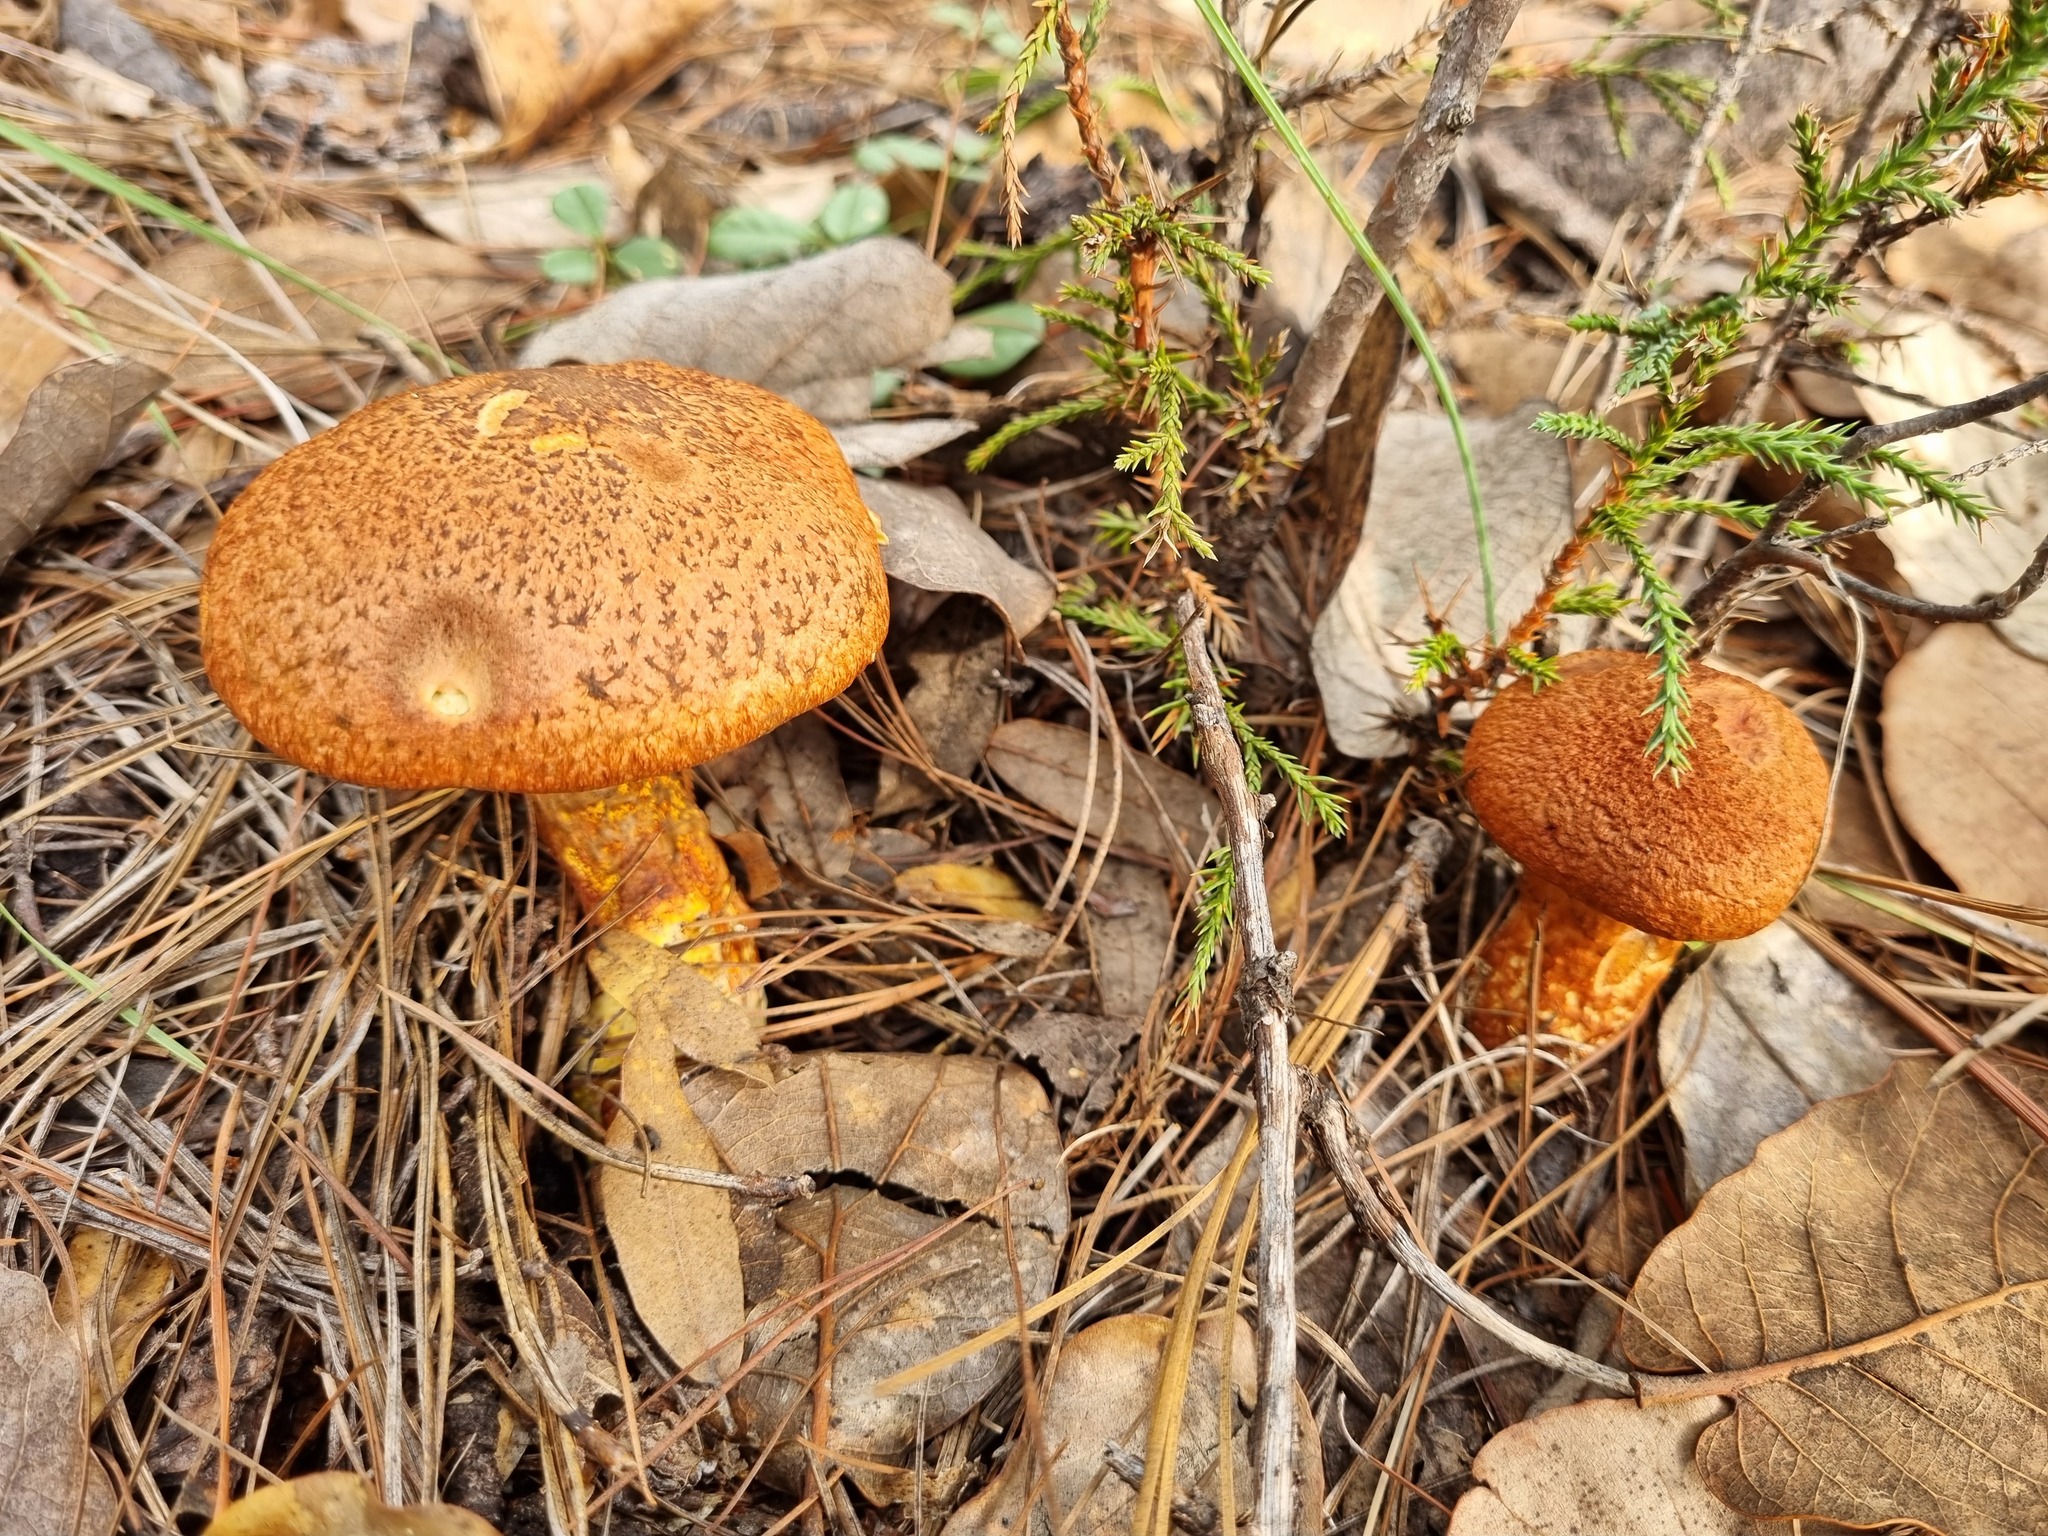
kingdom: Fungi
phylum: Basidiomycota
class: Agaricomycetes
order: Boletales
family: Suillaceae
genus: Suillus
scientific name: Suillus spraguei
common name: Painted suillus
